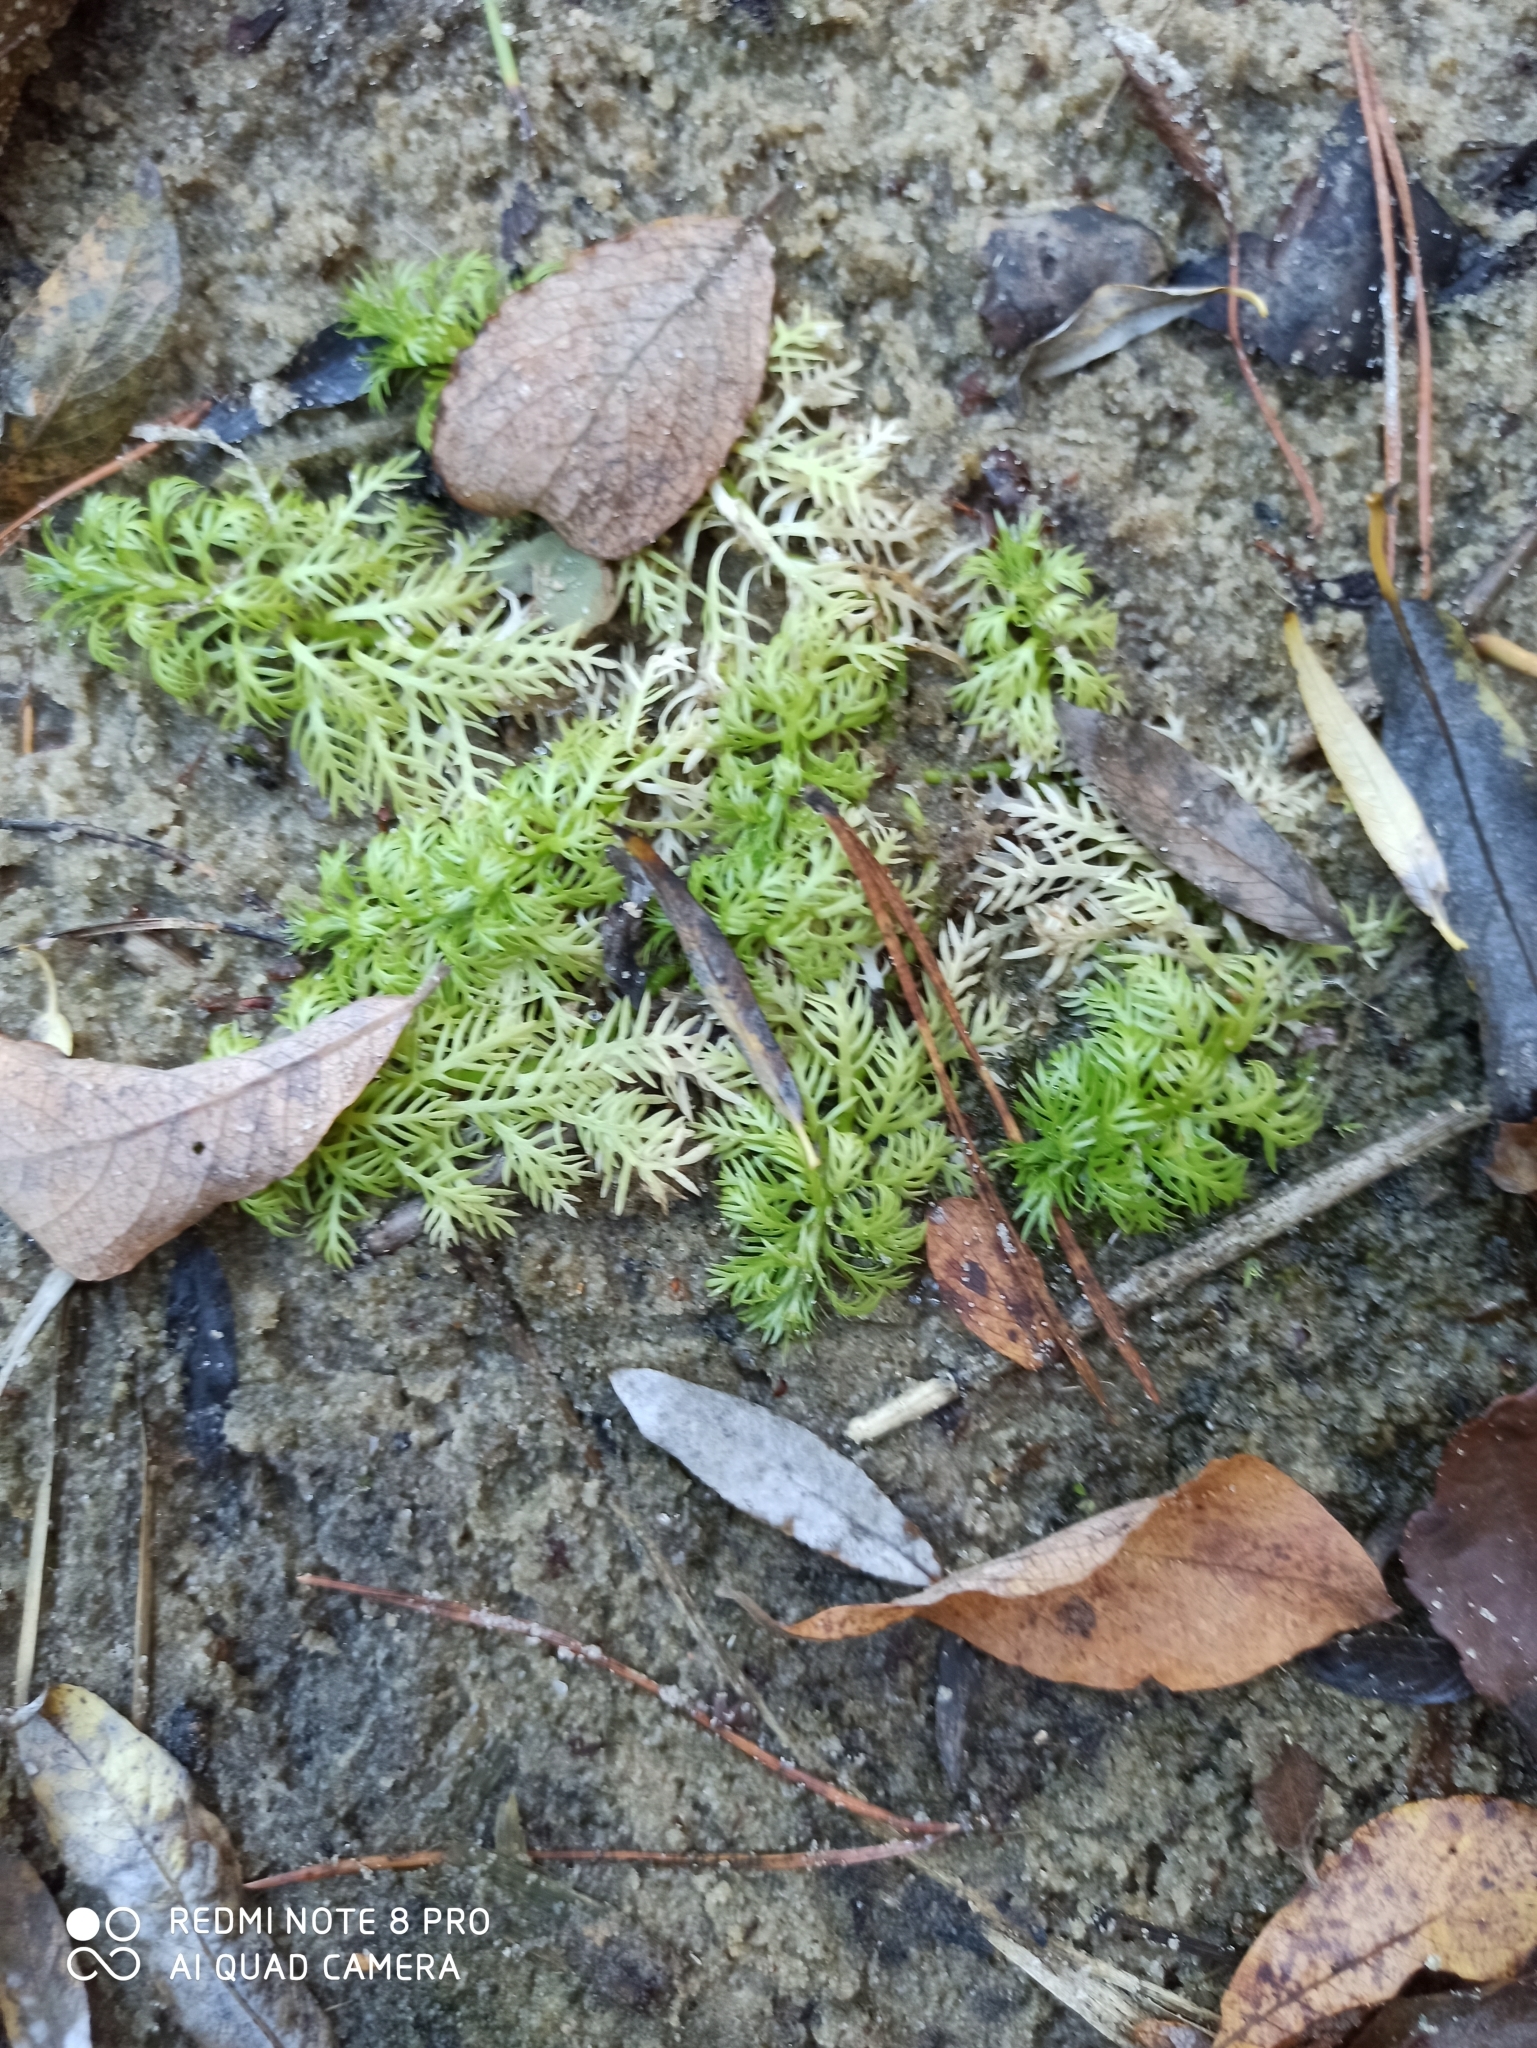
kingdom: Plantae
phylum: Tracheophyta
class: Magnoliopsida
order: Ericales
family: Primulaceae
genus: Hottonia
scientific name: Hottonia palustris
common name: Water-violet
